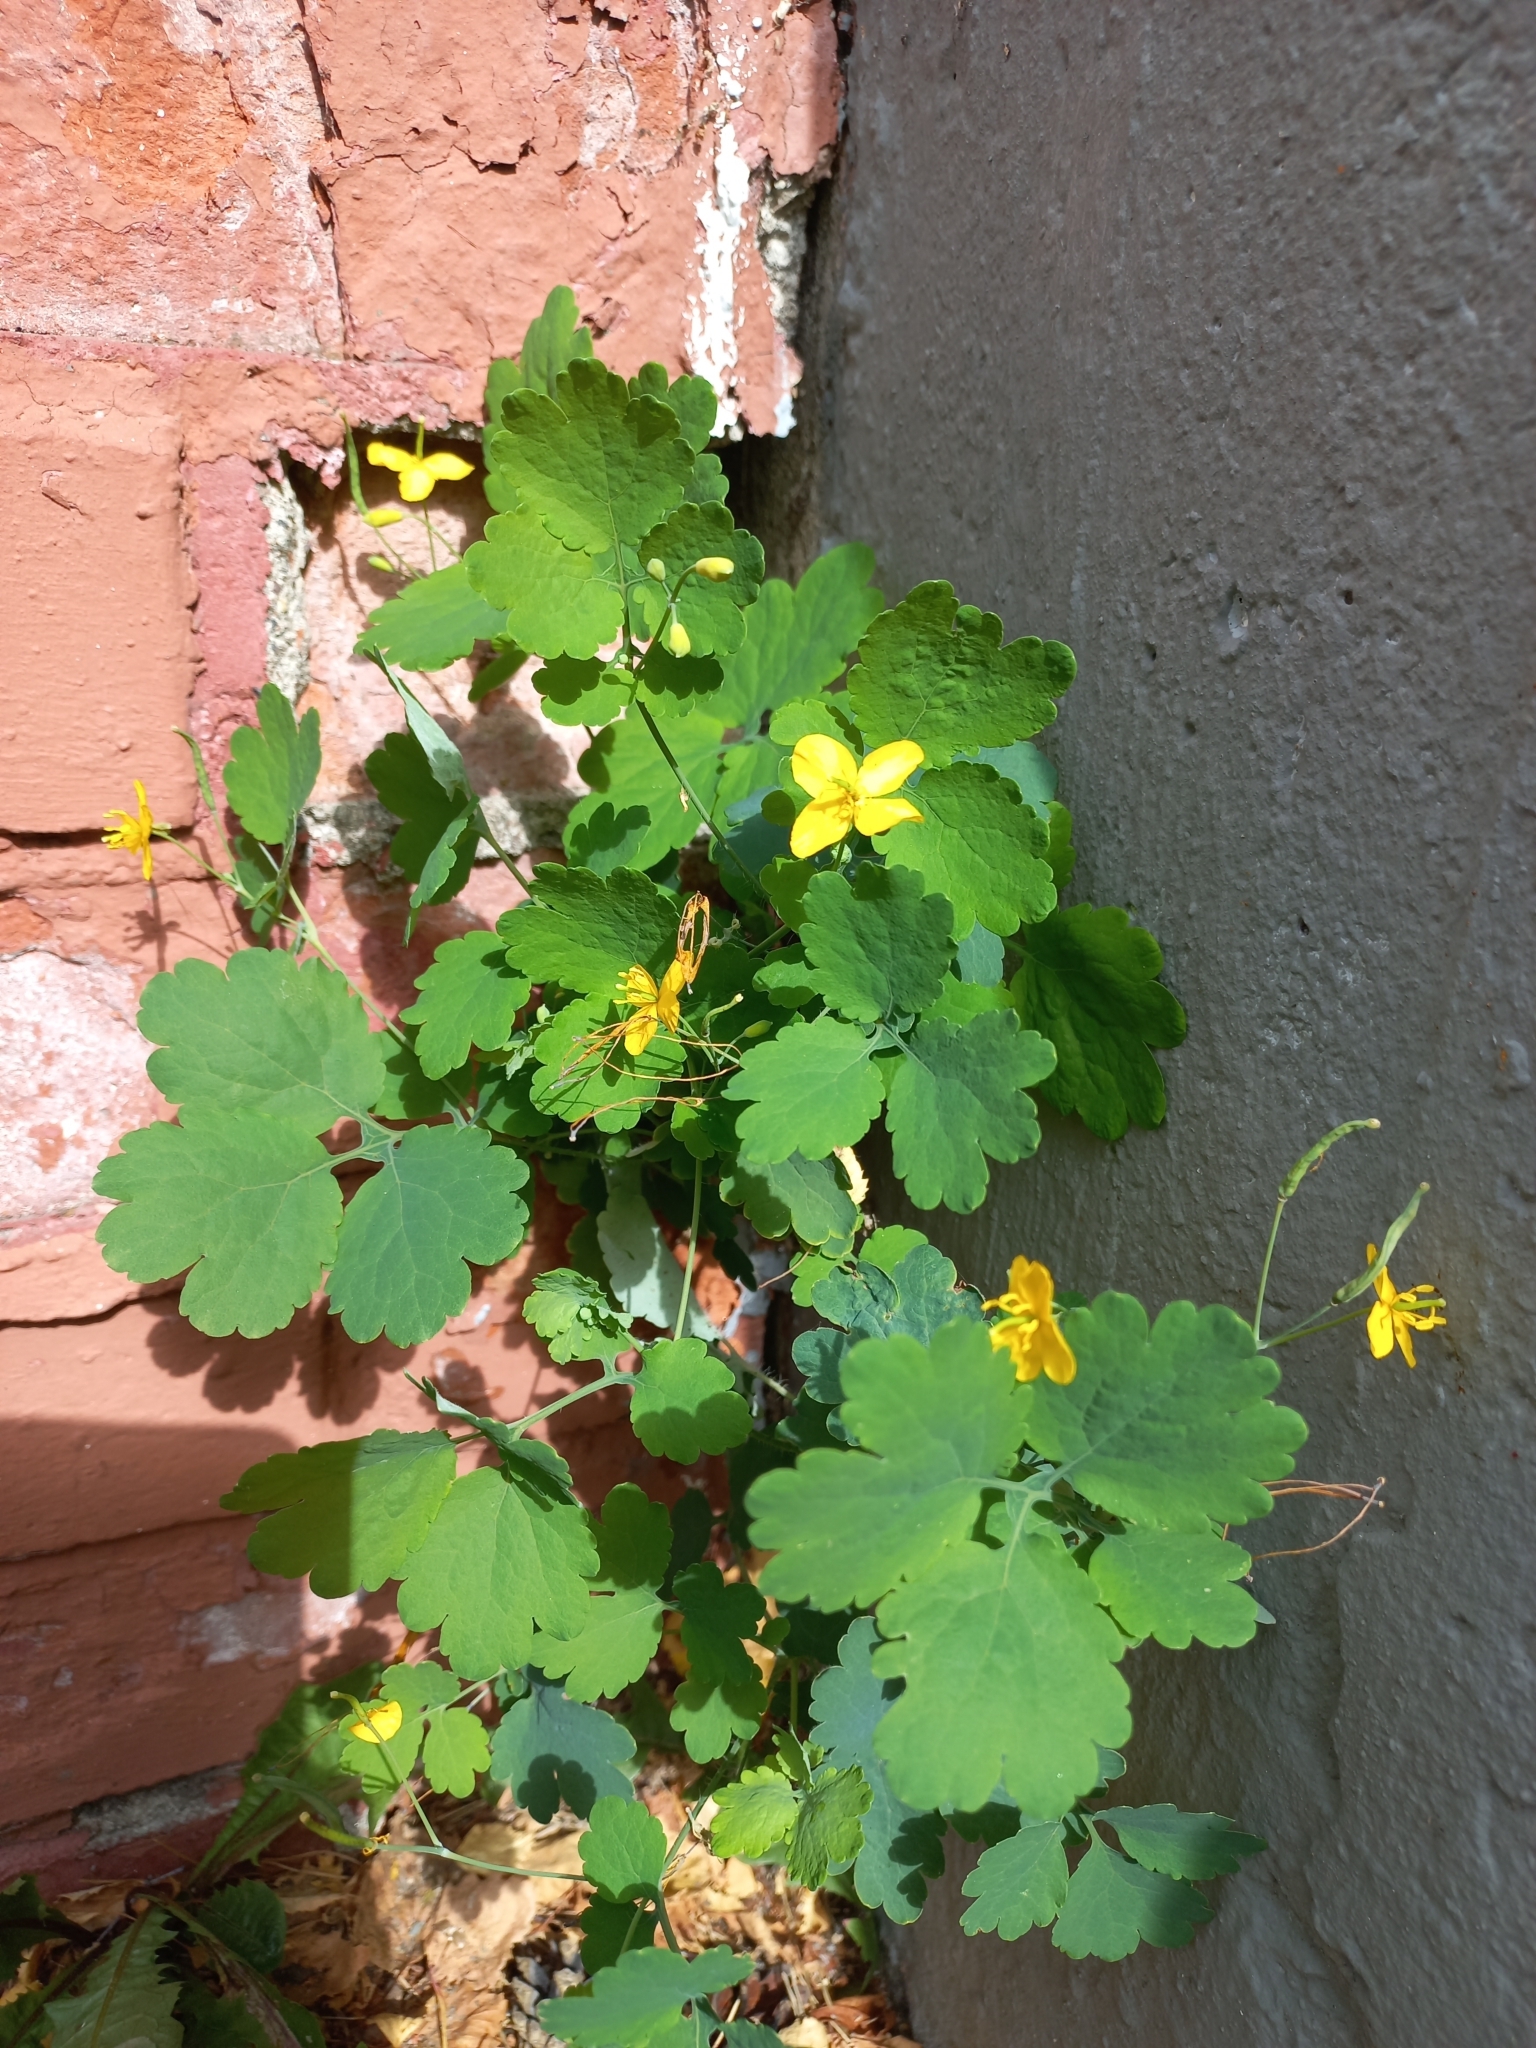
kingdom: Plantae
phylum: Tracheophyta
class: Magnoliopsida
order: Ranunculales
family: Papaveraceae
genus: Chelidonium
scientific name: Chelidonium majus
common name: Greater celandine
